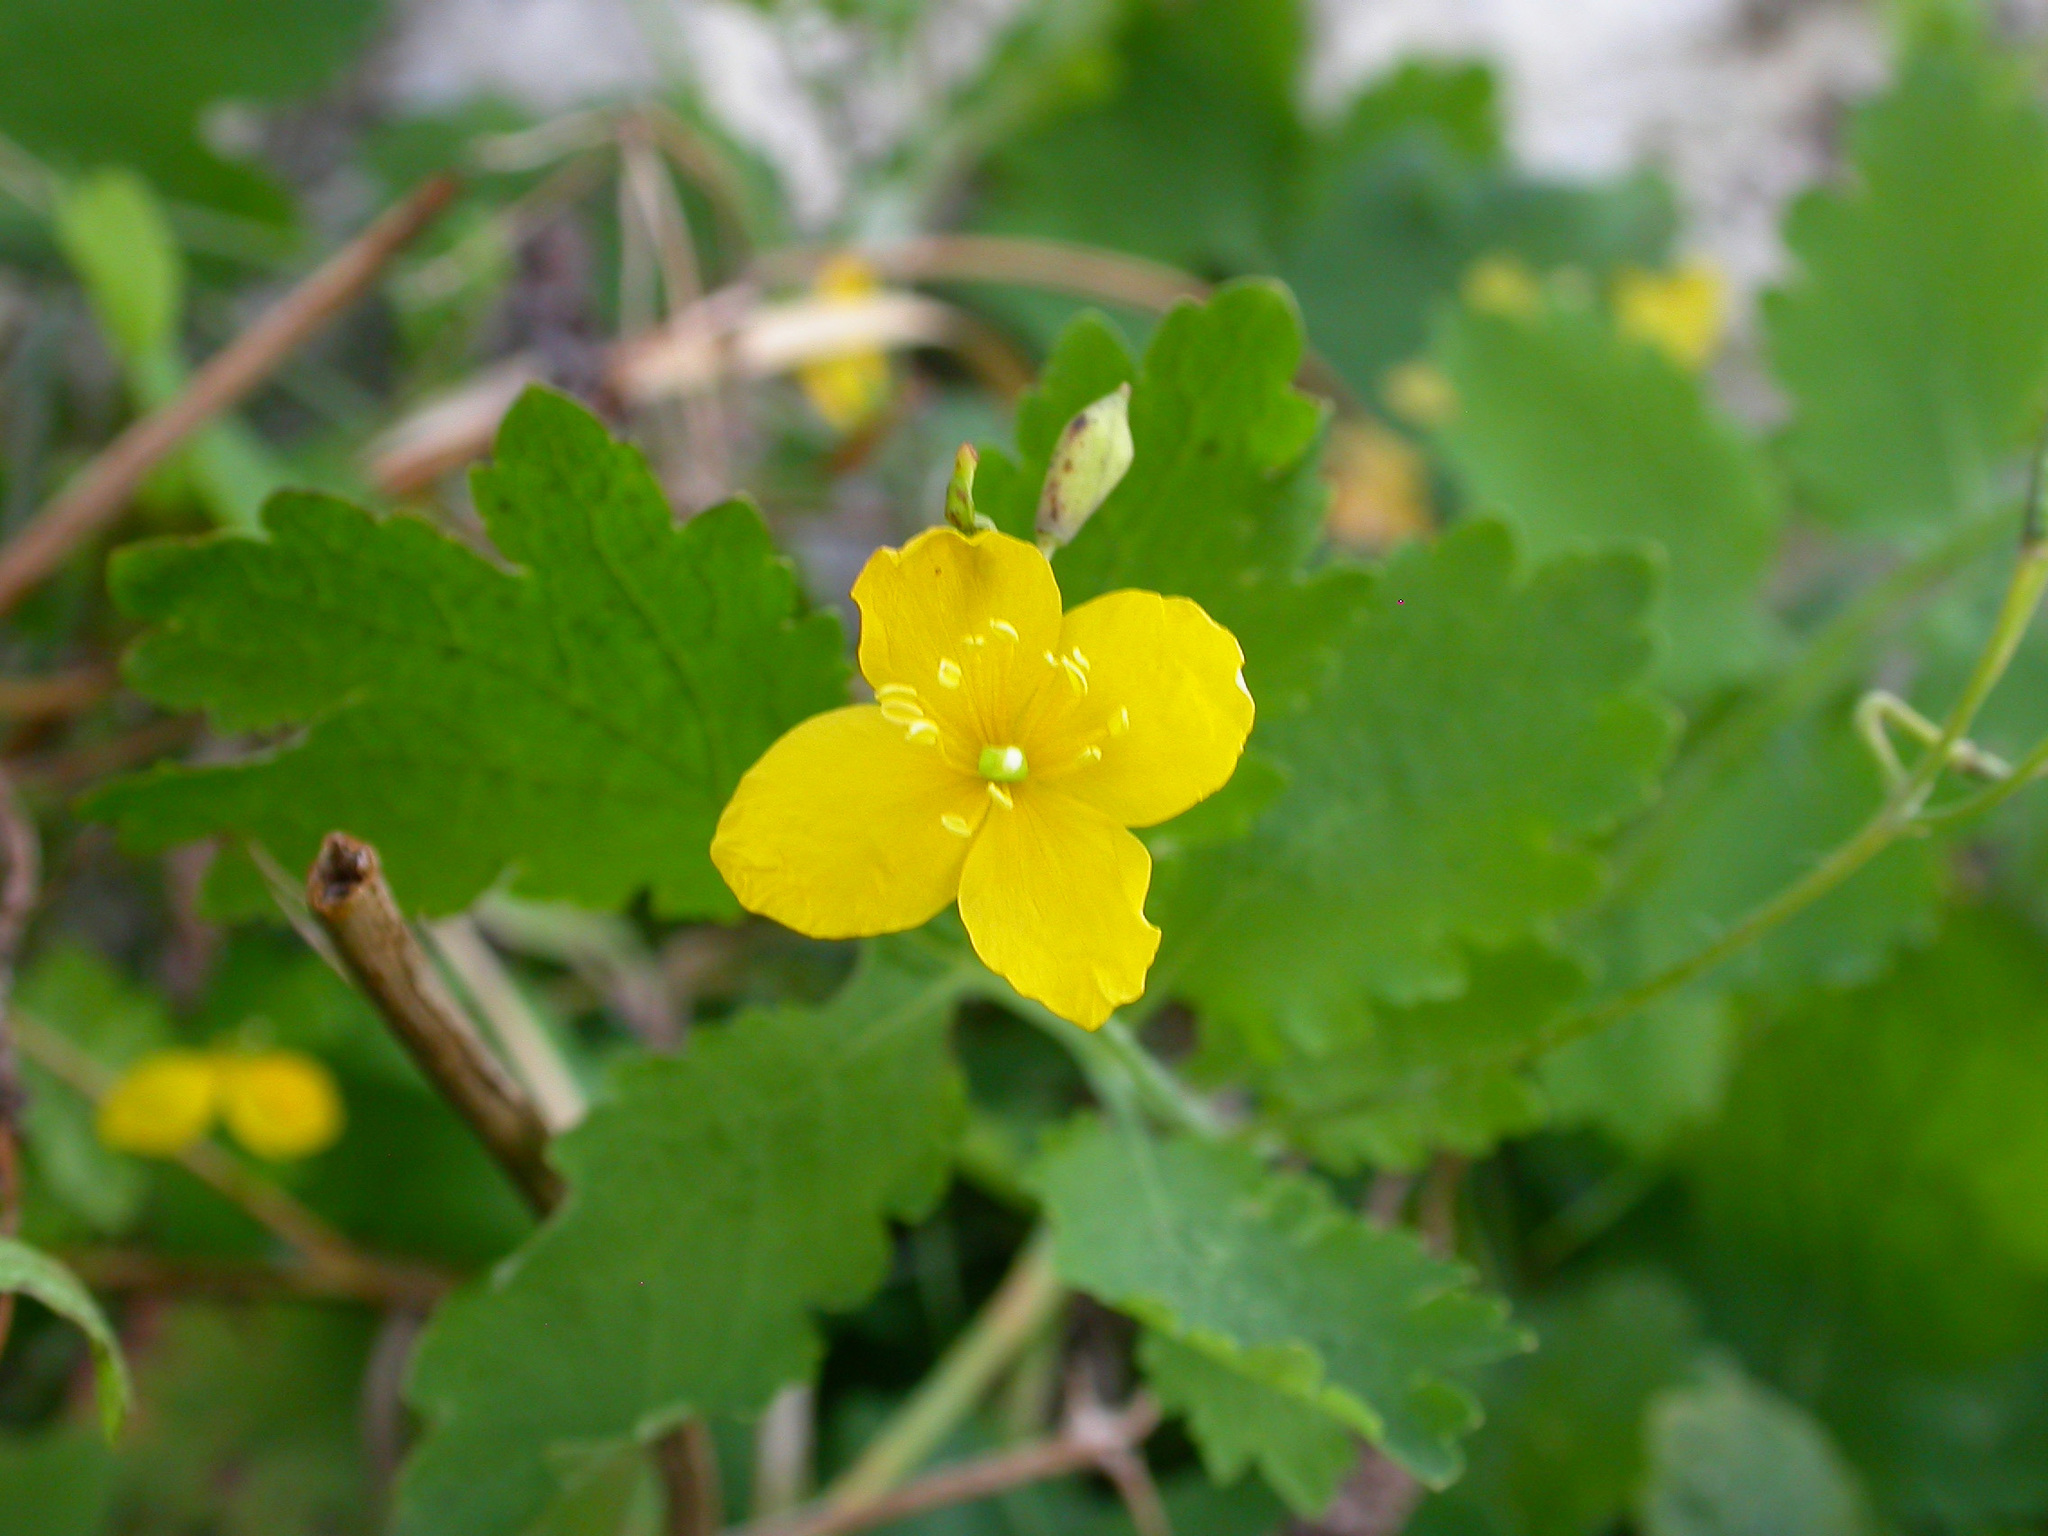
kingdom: Plantae
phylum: Tracheophyta
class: Magnoliopsida
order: Ranunculales
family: Papaveraceae
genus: Chelidonium
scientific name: Chelidonium majus
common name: Greater celandine
